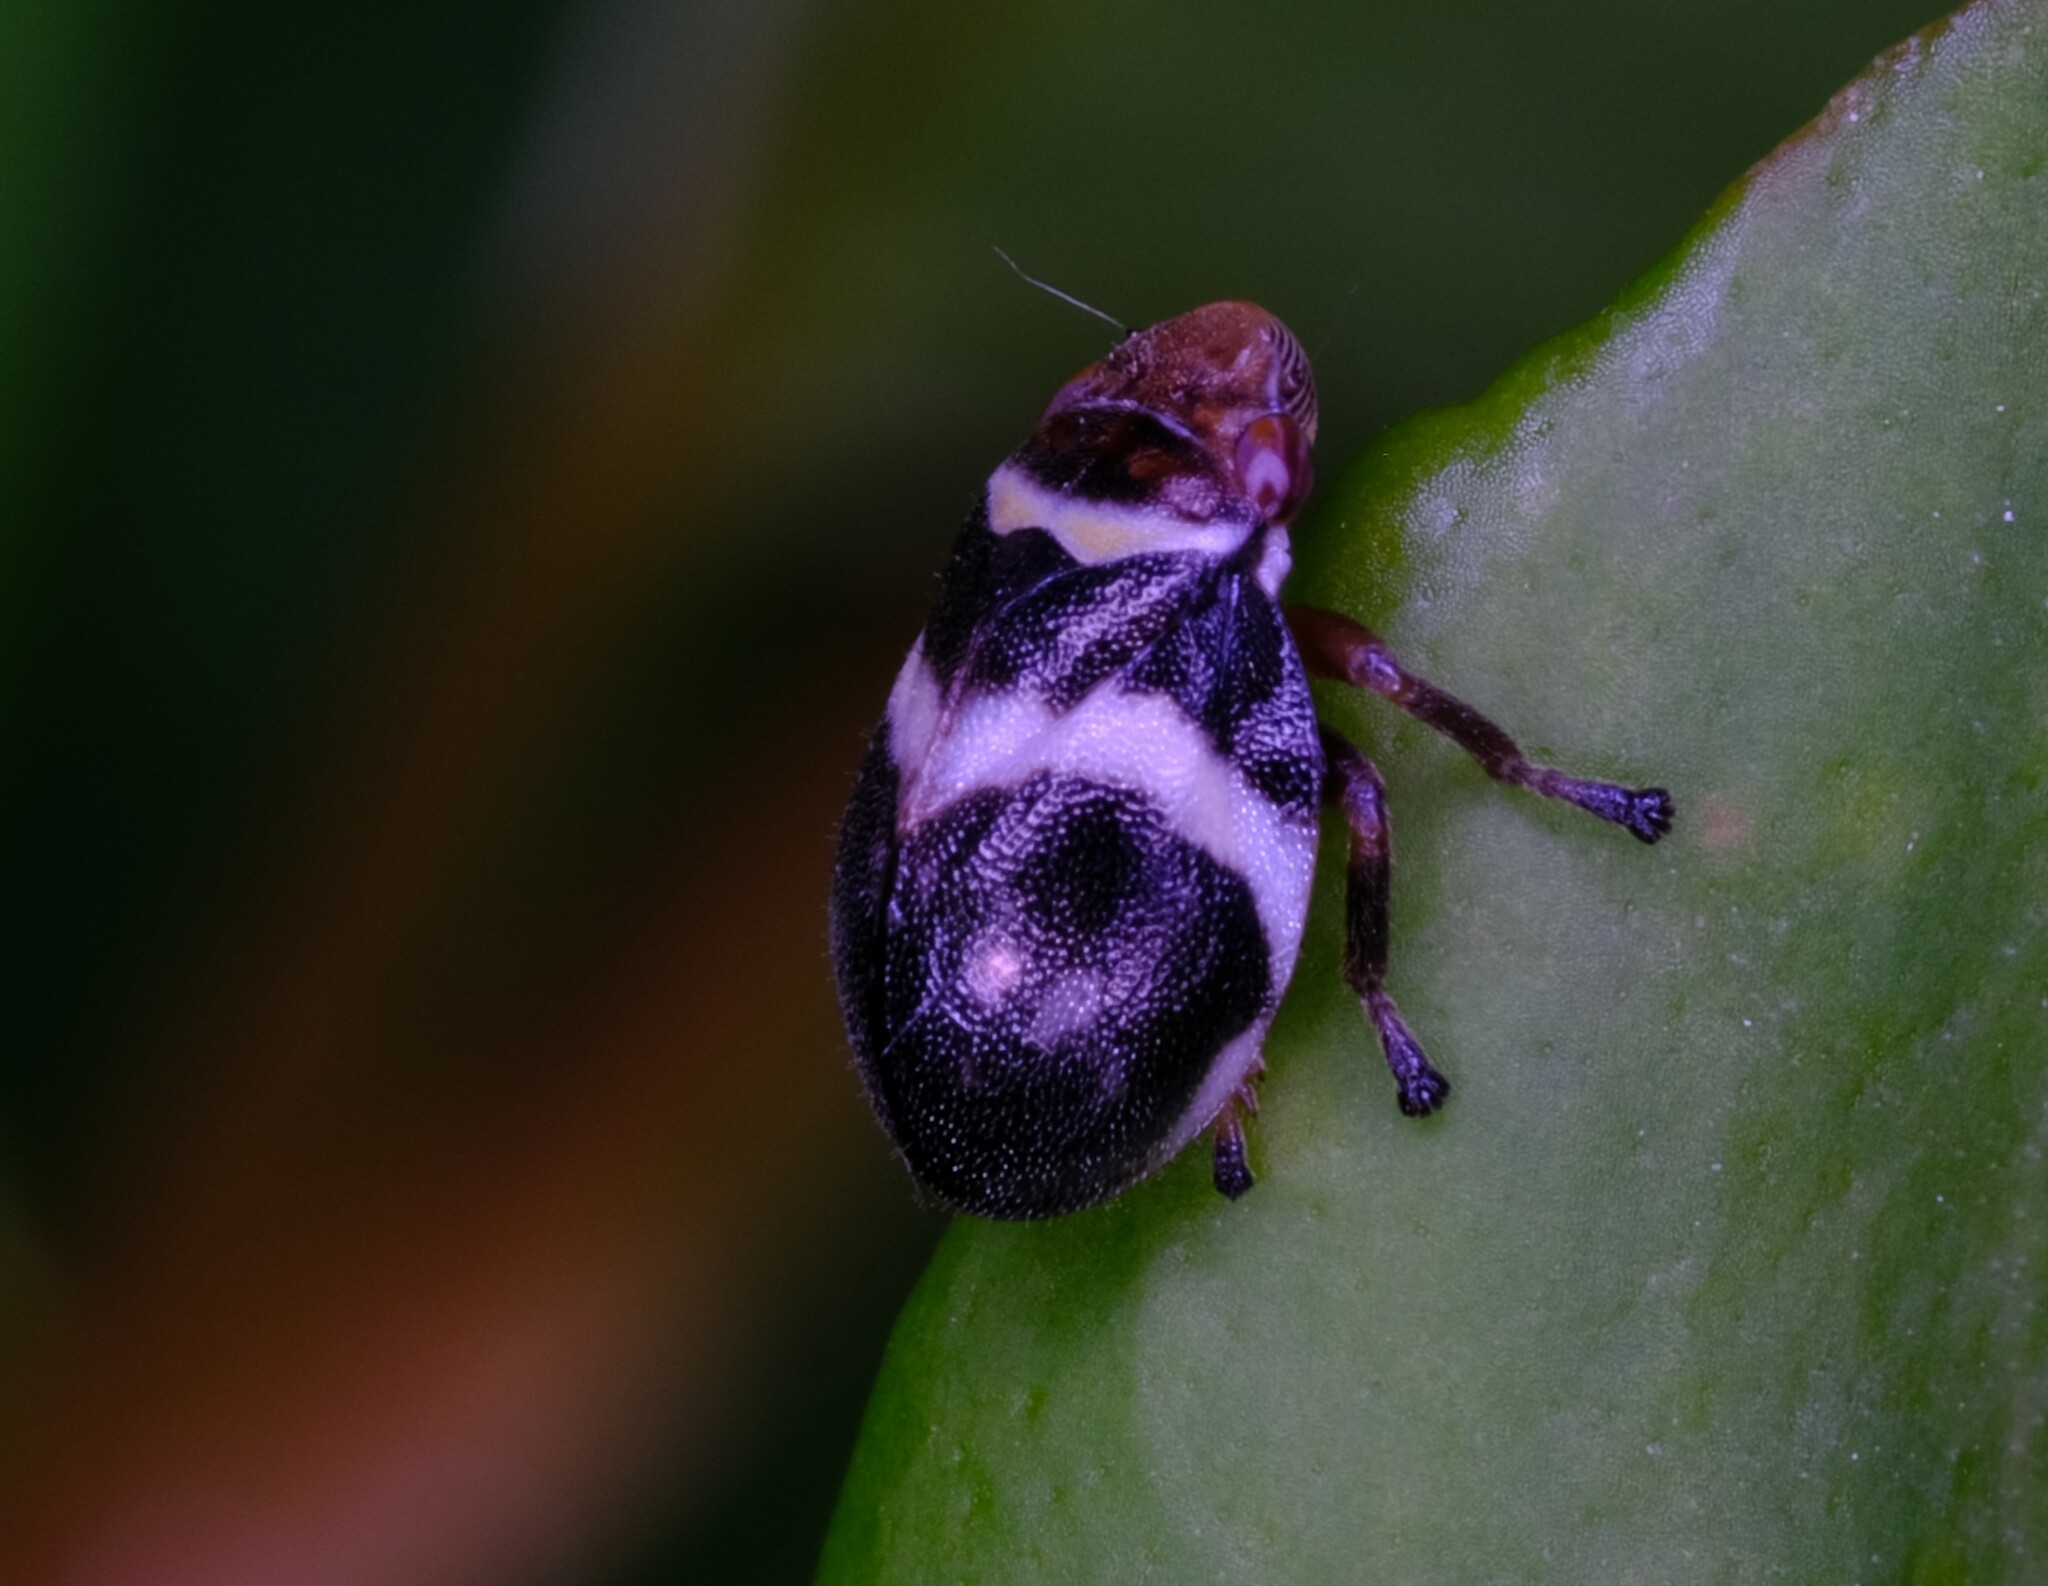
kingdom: Animalia
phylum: Arthropoda
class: Insecta
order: Hemiptera
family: Aphrophoridae
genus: Bathyllus
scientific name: Bathyllus albicinctus
